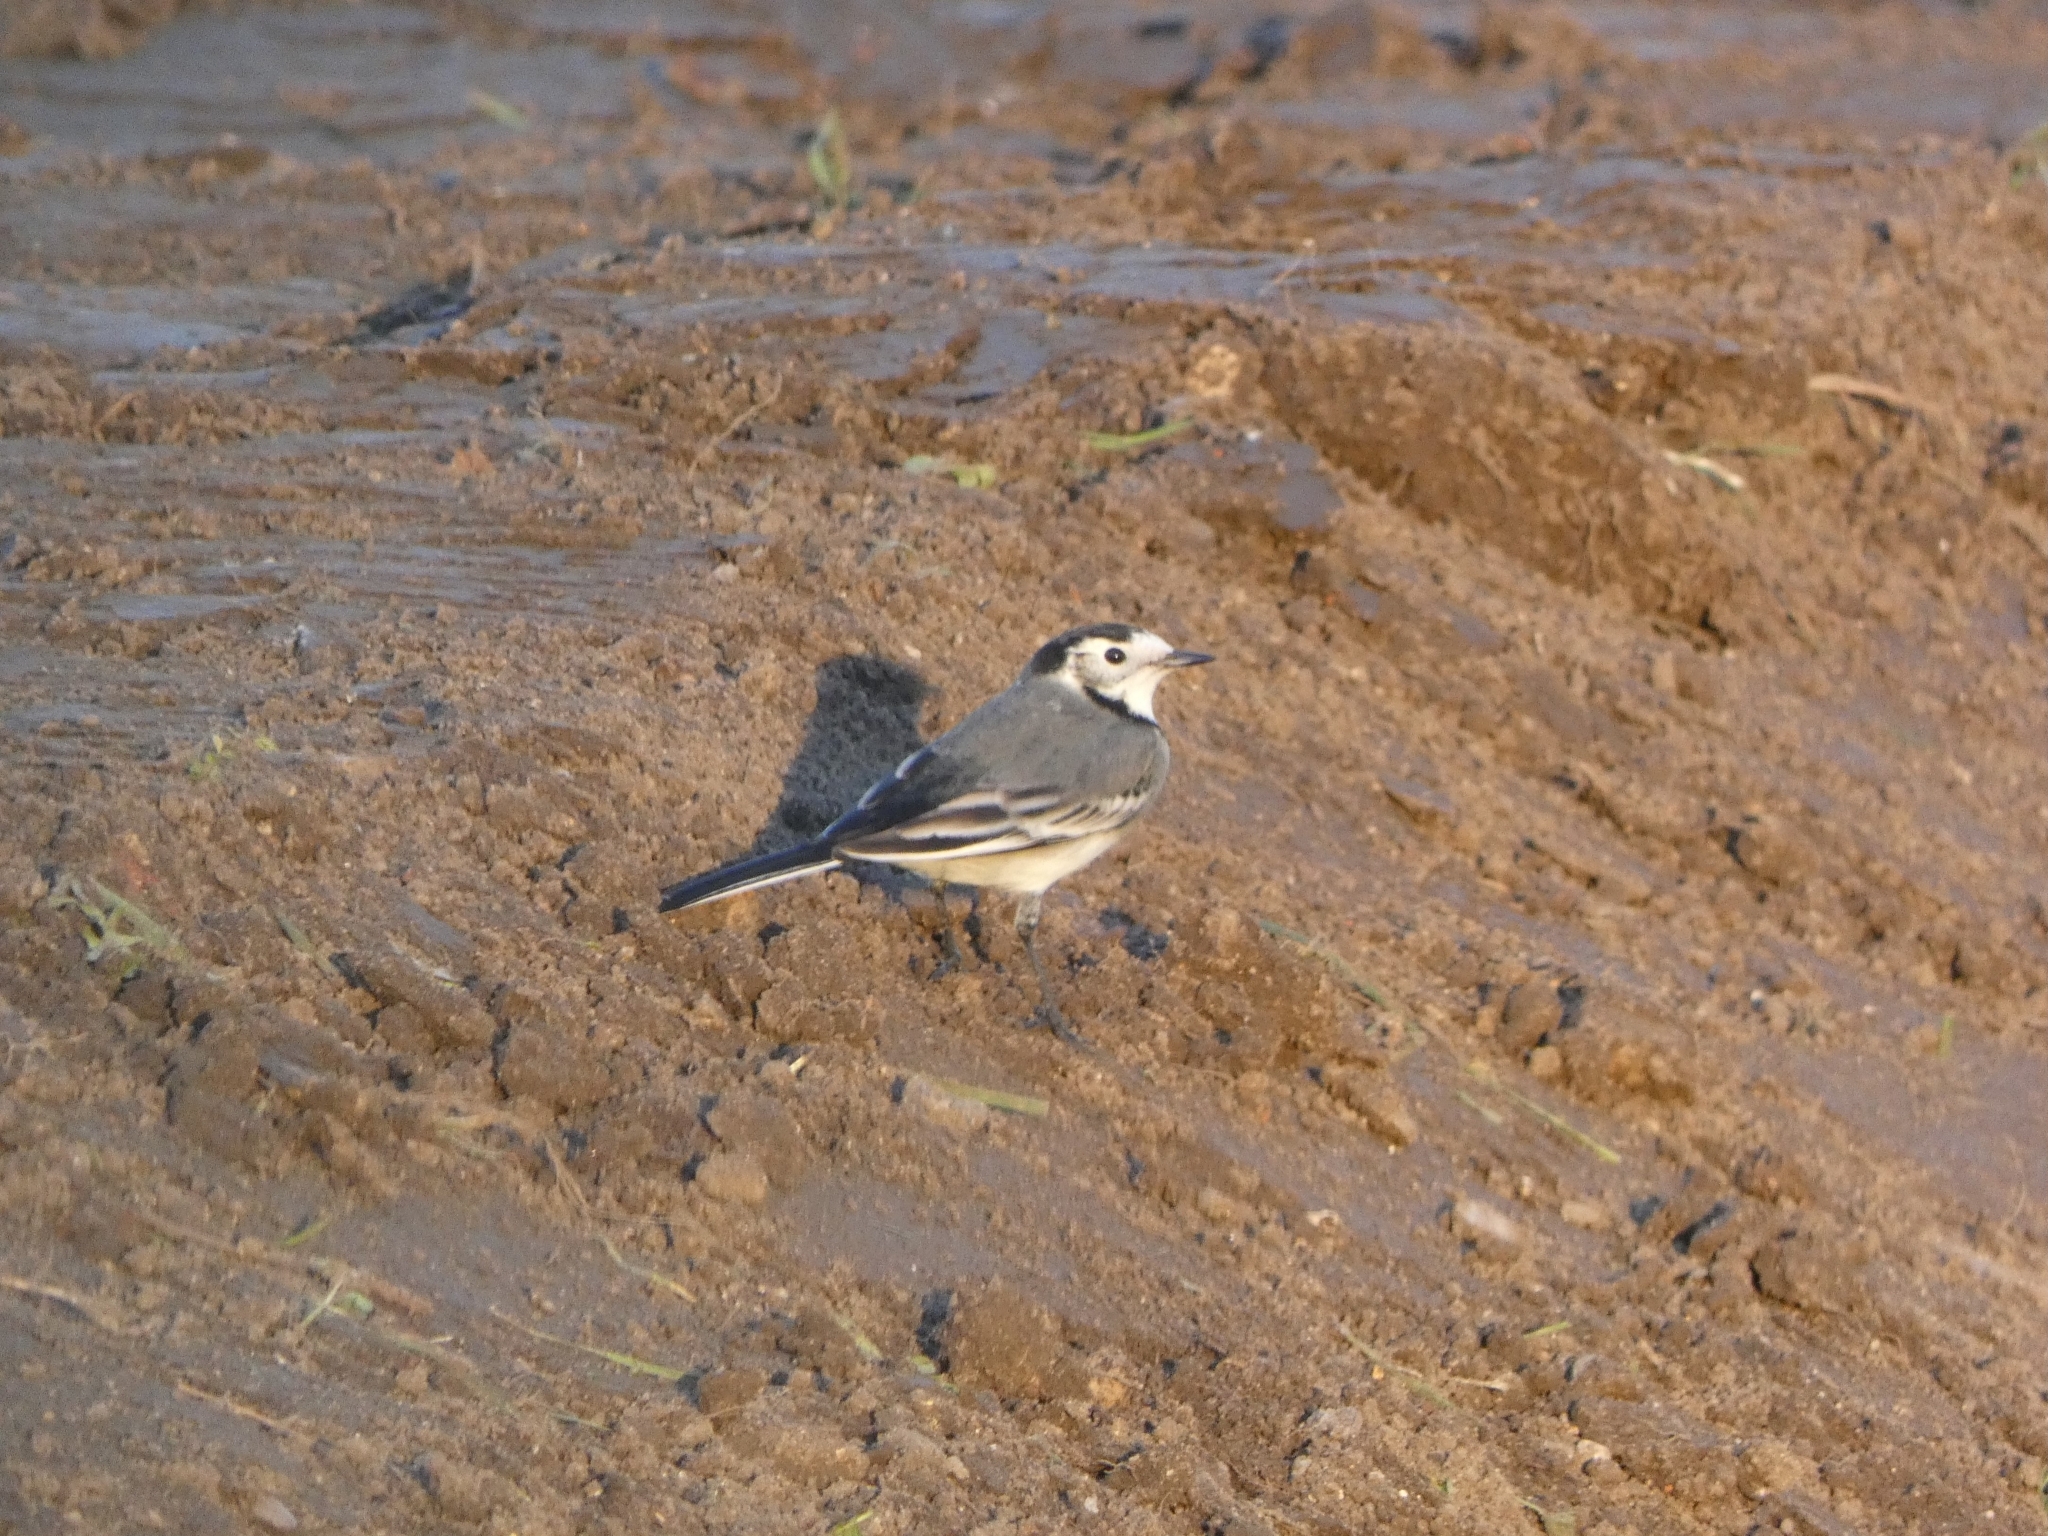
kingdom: Animalia
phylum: Chordata
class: Aves
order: Passeriformes
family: Motacillidae
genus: Motacilla
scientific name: Motacilla alba
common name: White wagtail
